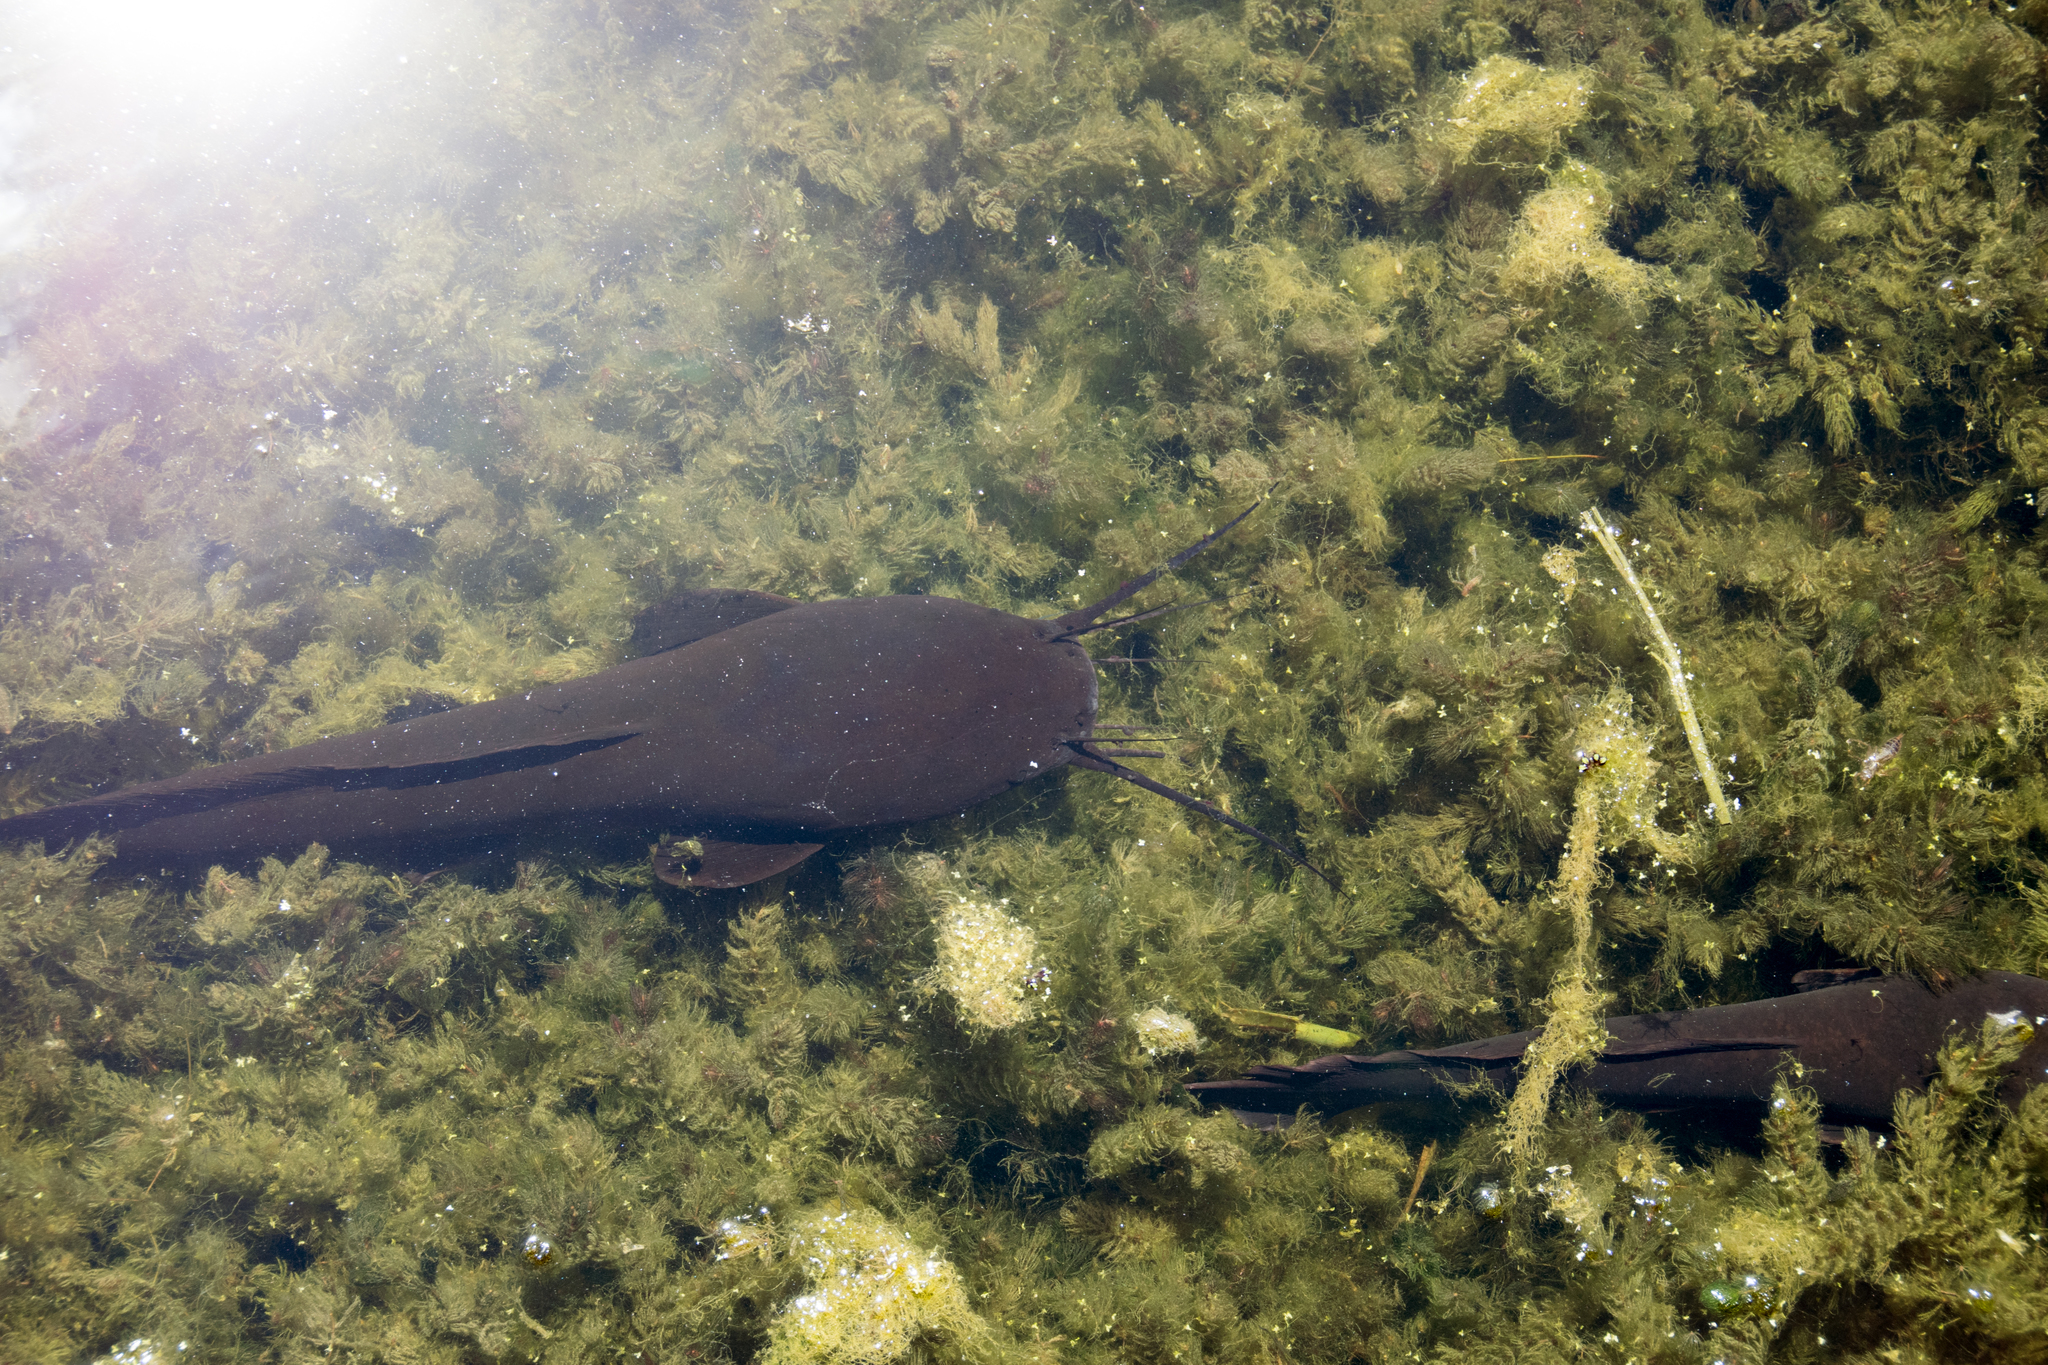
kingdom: Animalia
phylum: Chordata
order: Siluriformes
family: Clariidae
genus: Clarias
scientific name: Clarias gariepinus
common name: African catfish
